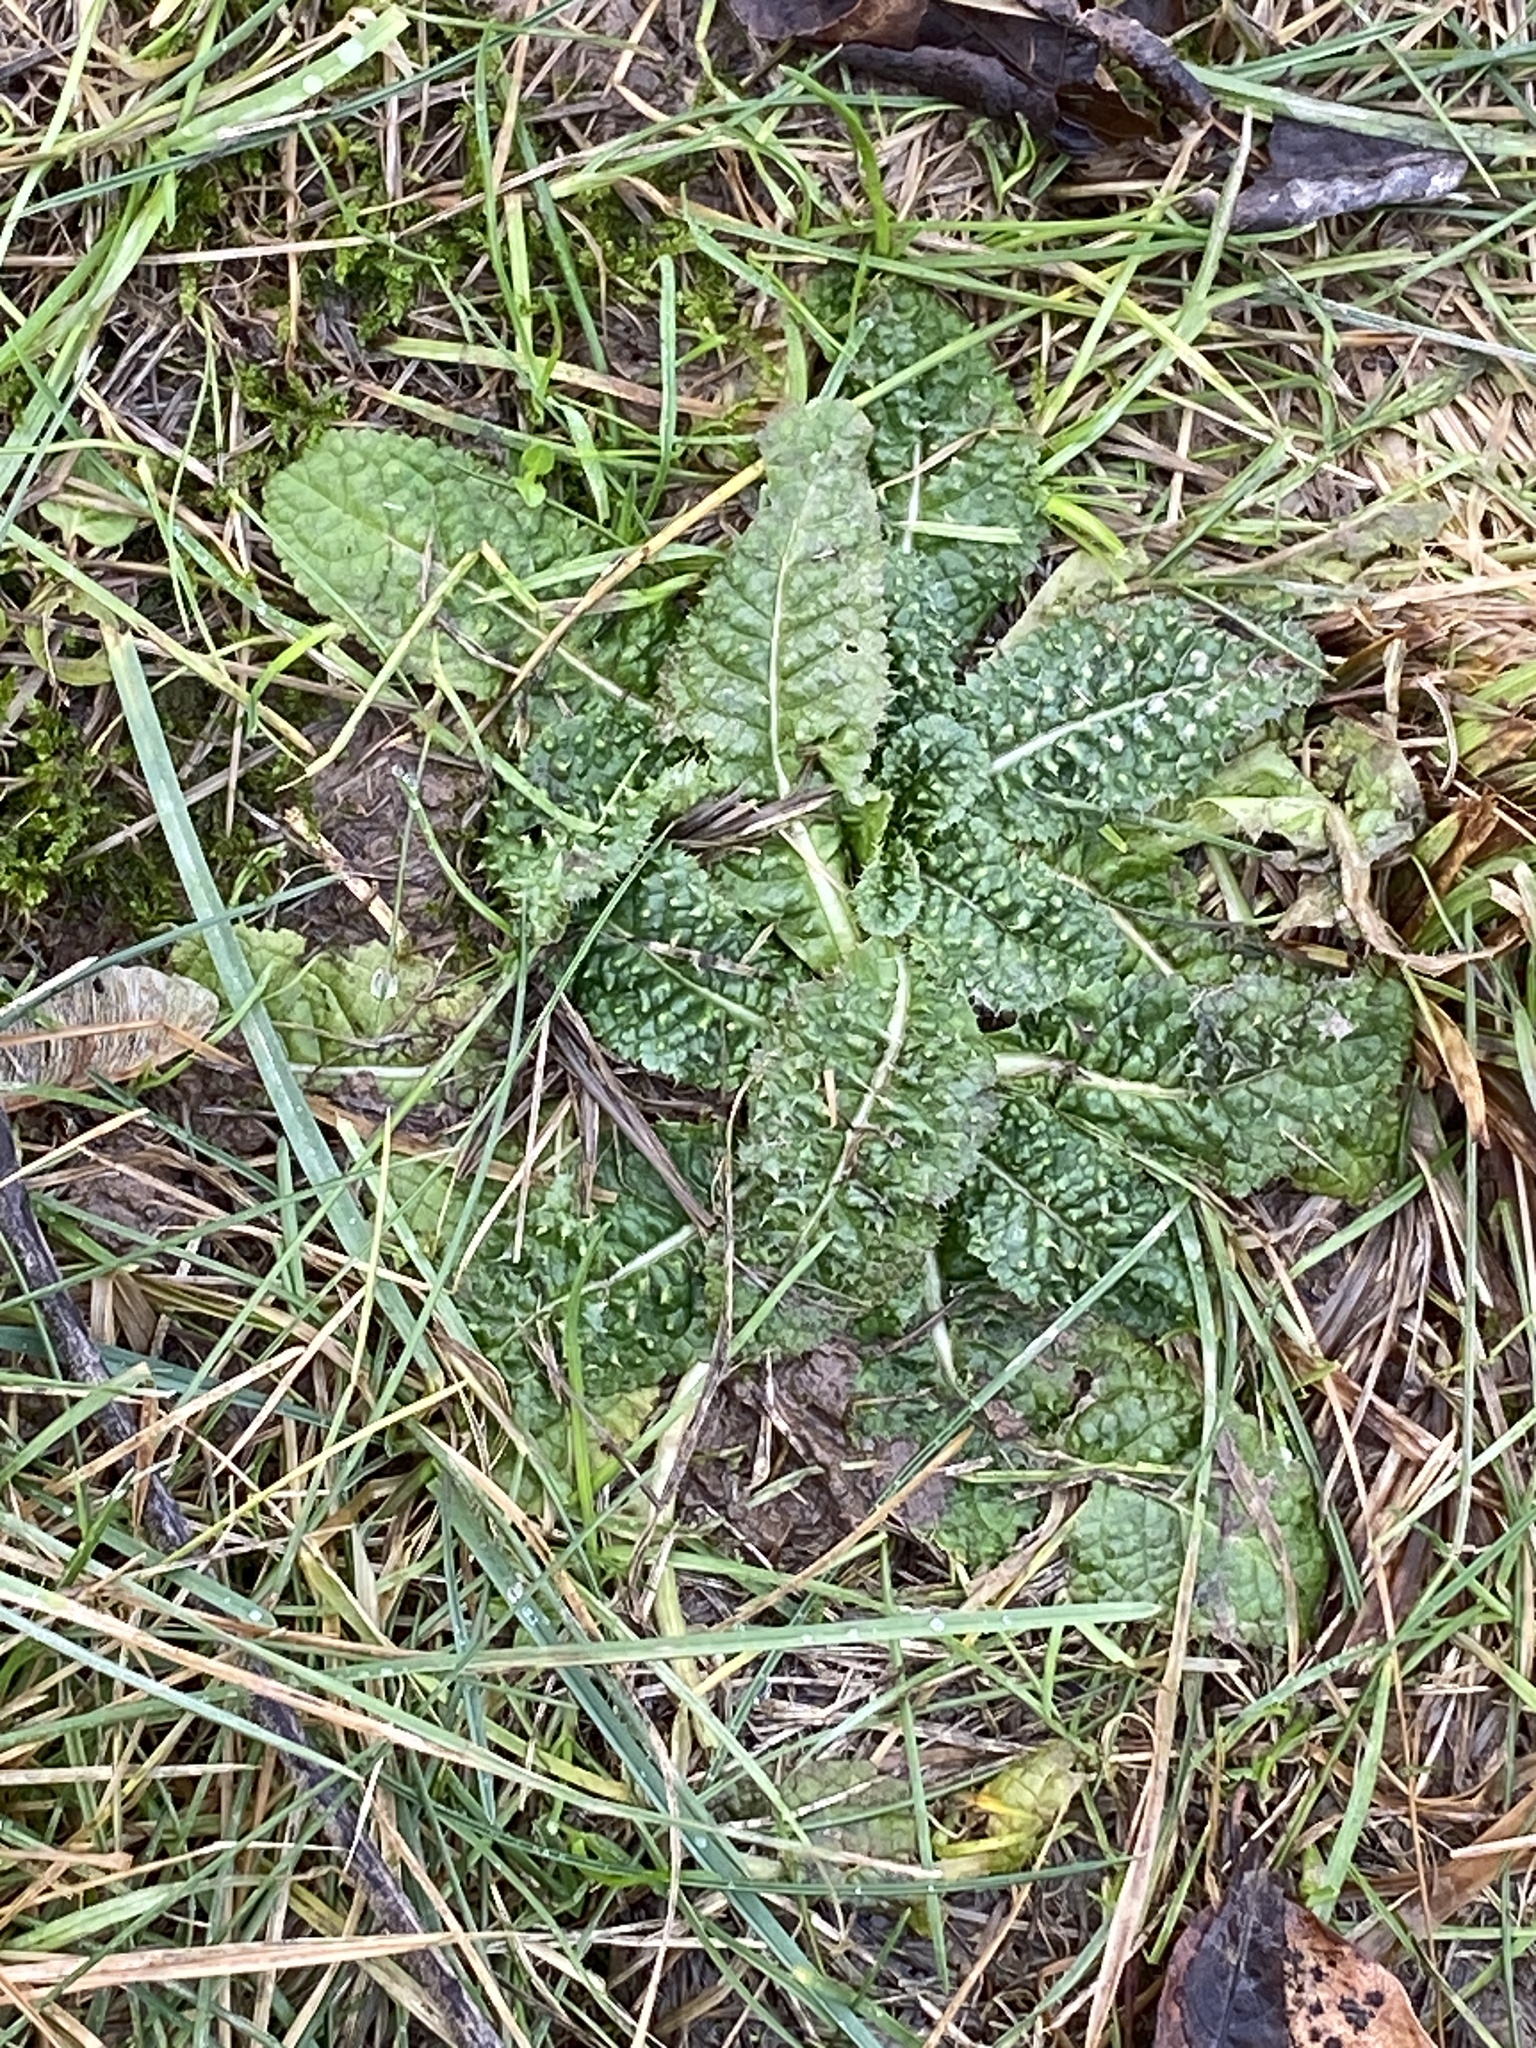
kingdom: Plantae
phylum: Tracheophyta
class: Magnoliopsida
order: Dipsacales
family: Caprifoliaceae
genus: Dipsacus
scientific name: Dipsacus fullonum
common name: Teasel
